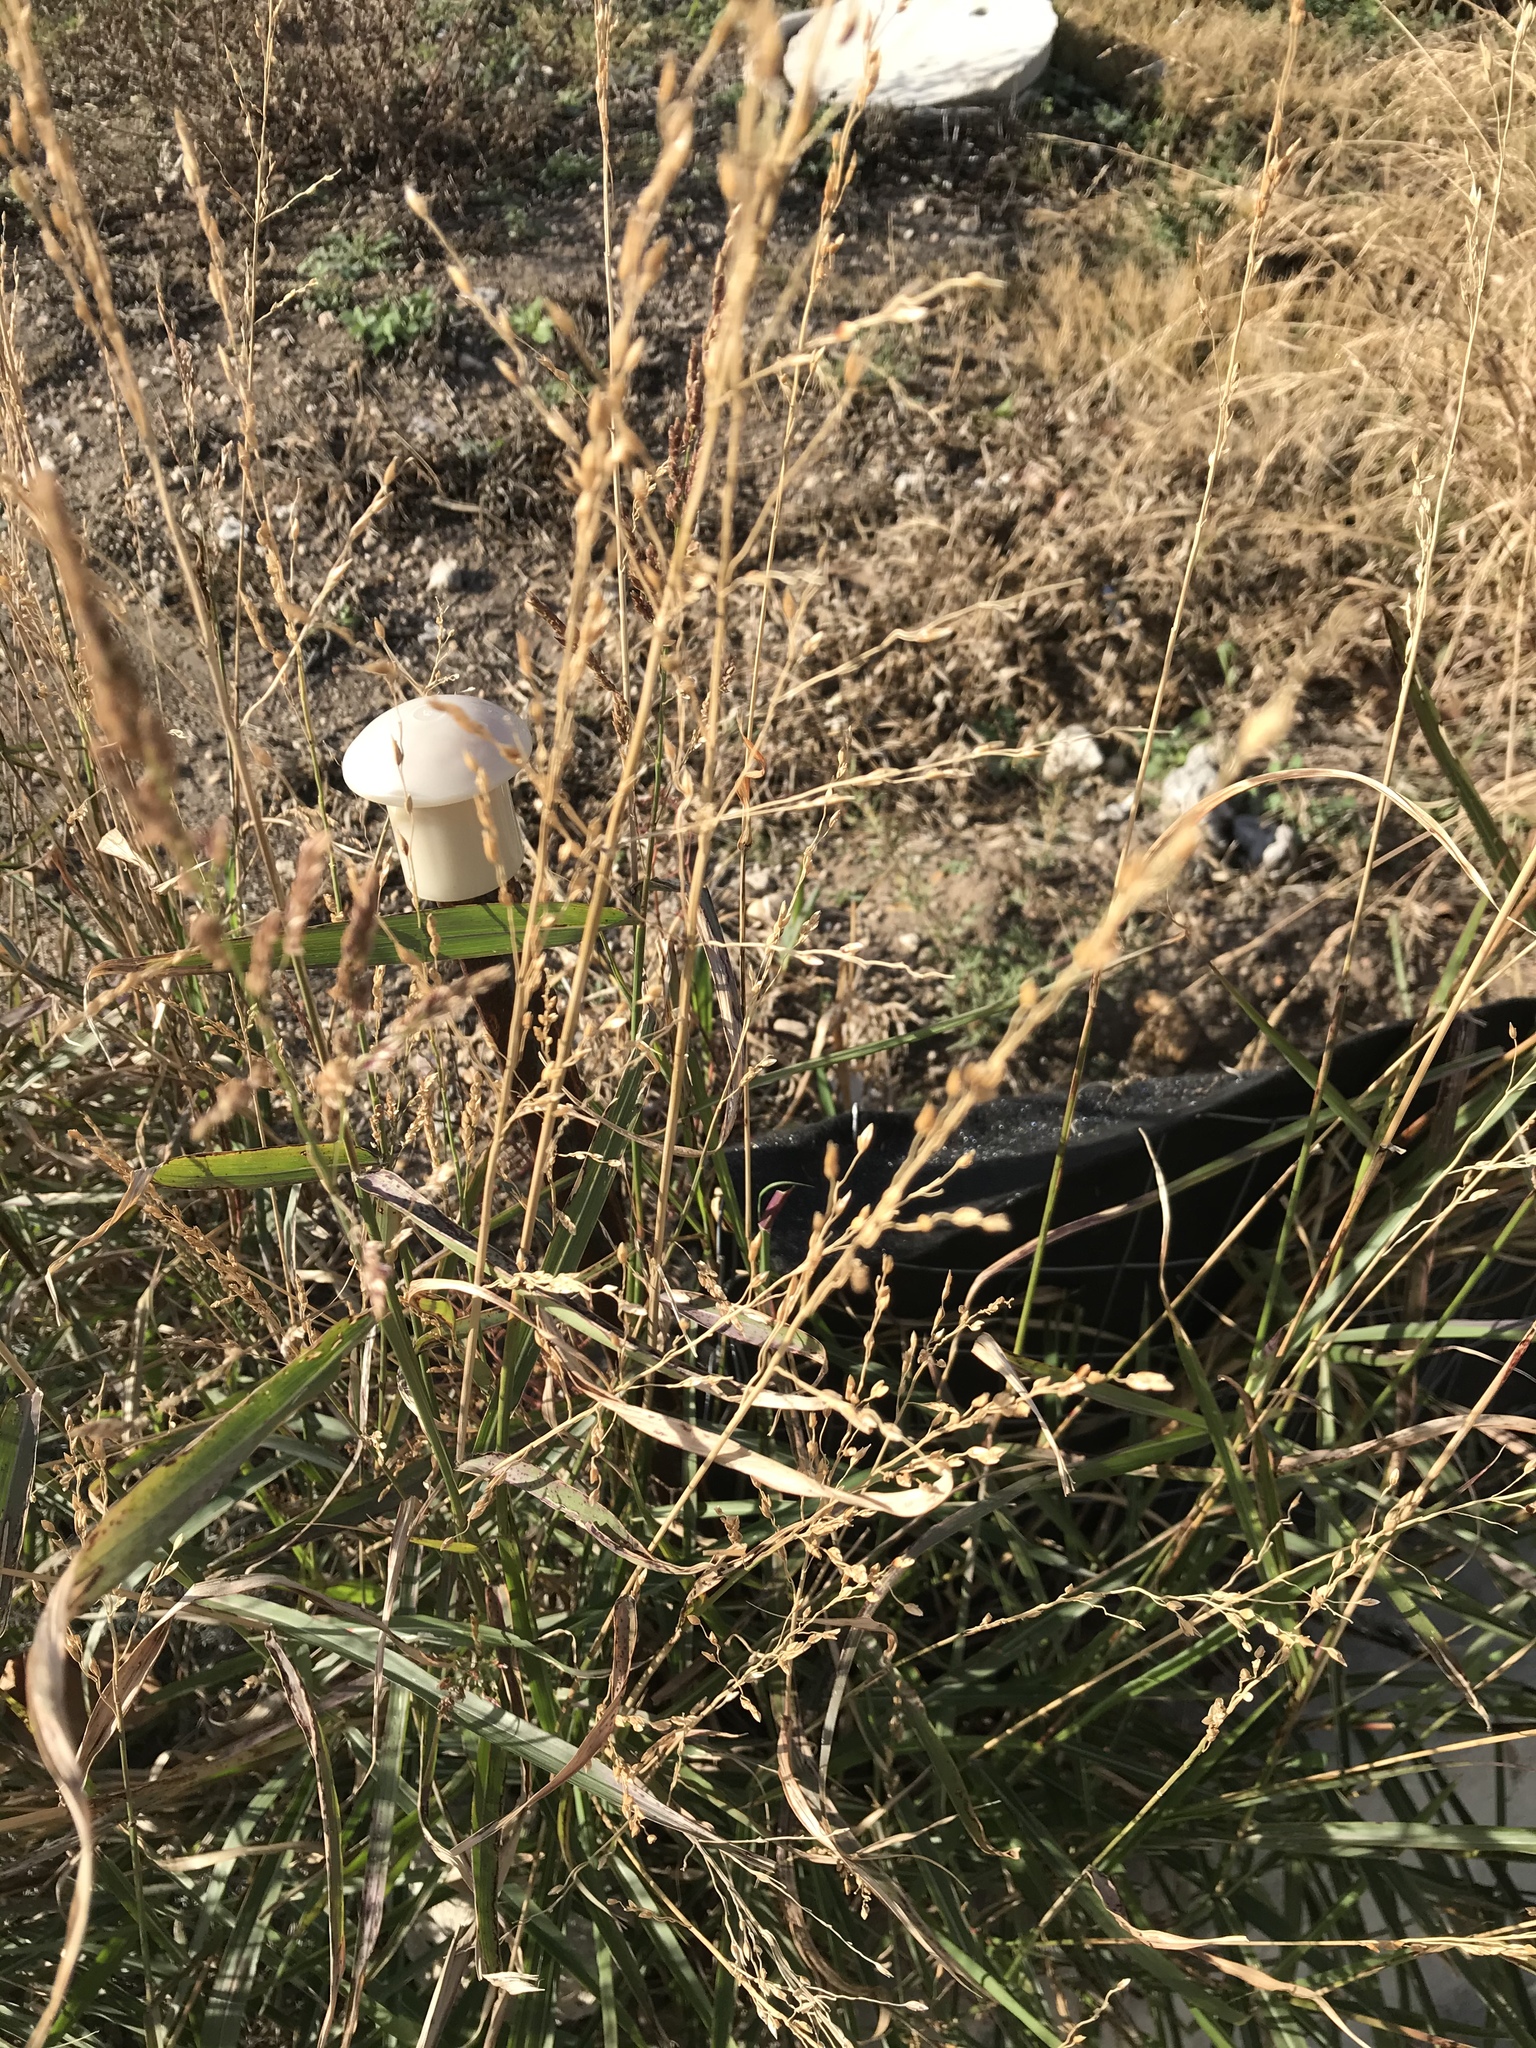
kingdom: Plantae
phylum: Tracheophyta
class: Liliopsida
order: Poales
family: Poaceae
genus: Sorghum
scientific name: Sorghum halepense
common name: Johnson-grass
